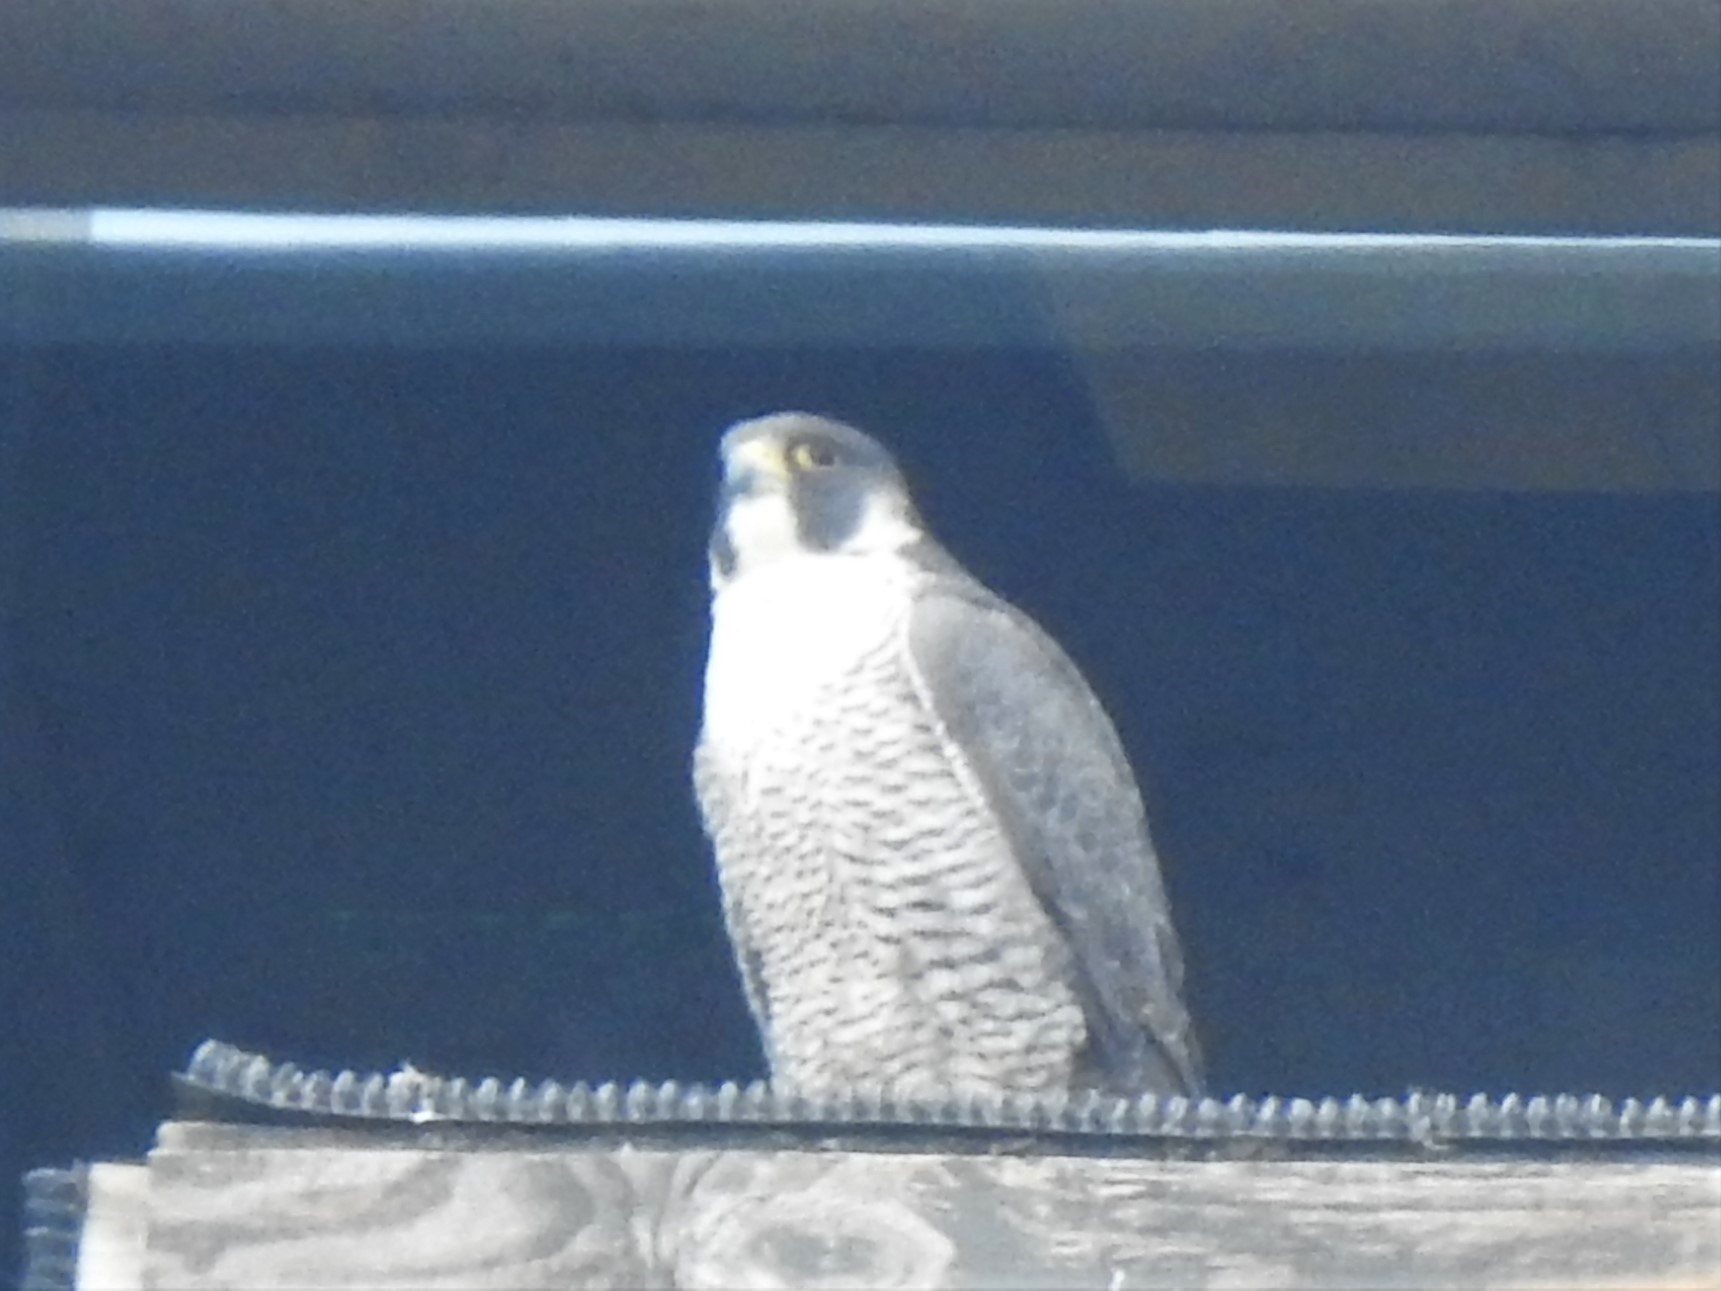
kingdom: Animalia
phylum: Chordata
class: Aves
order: Falconiformes
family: Falconidae
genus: Falco
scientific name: Falco peregrinus
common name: Peregrine falcon
